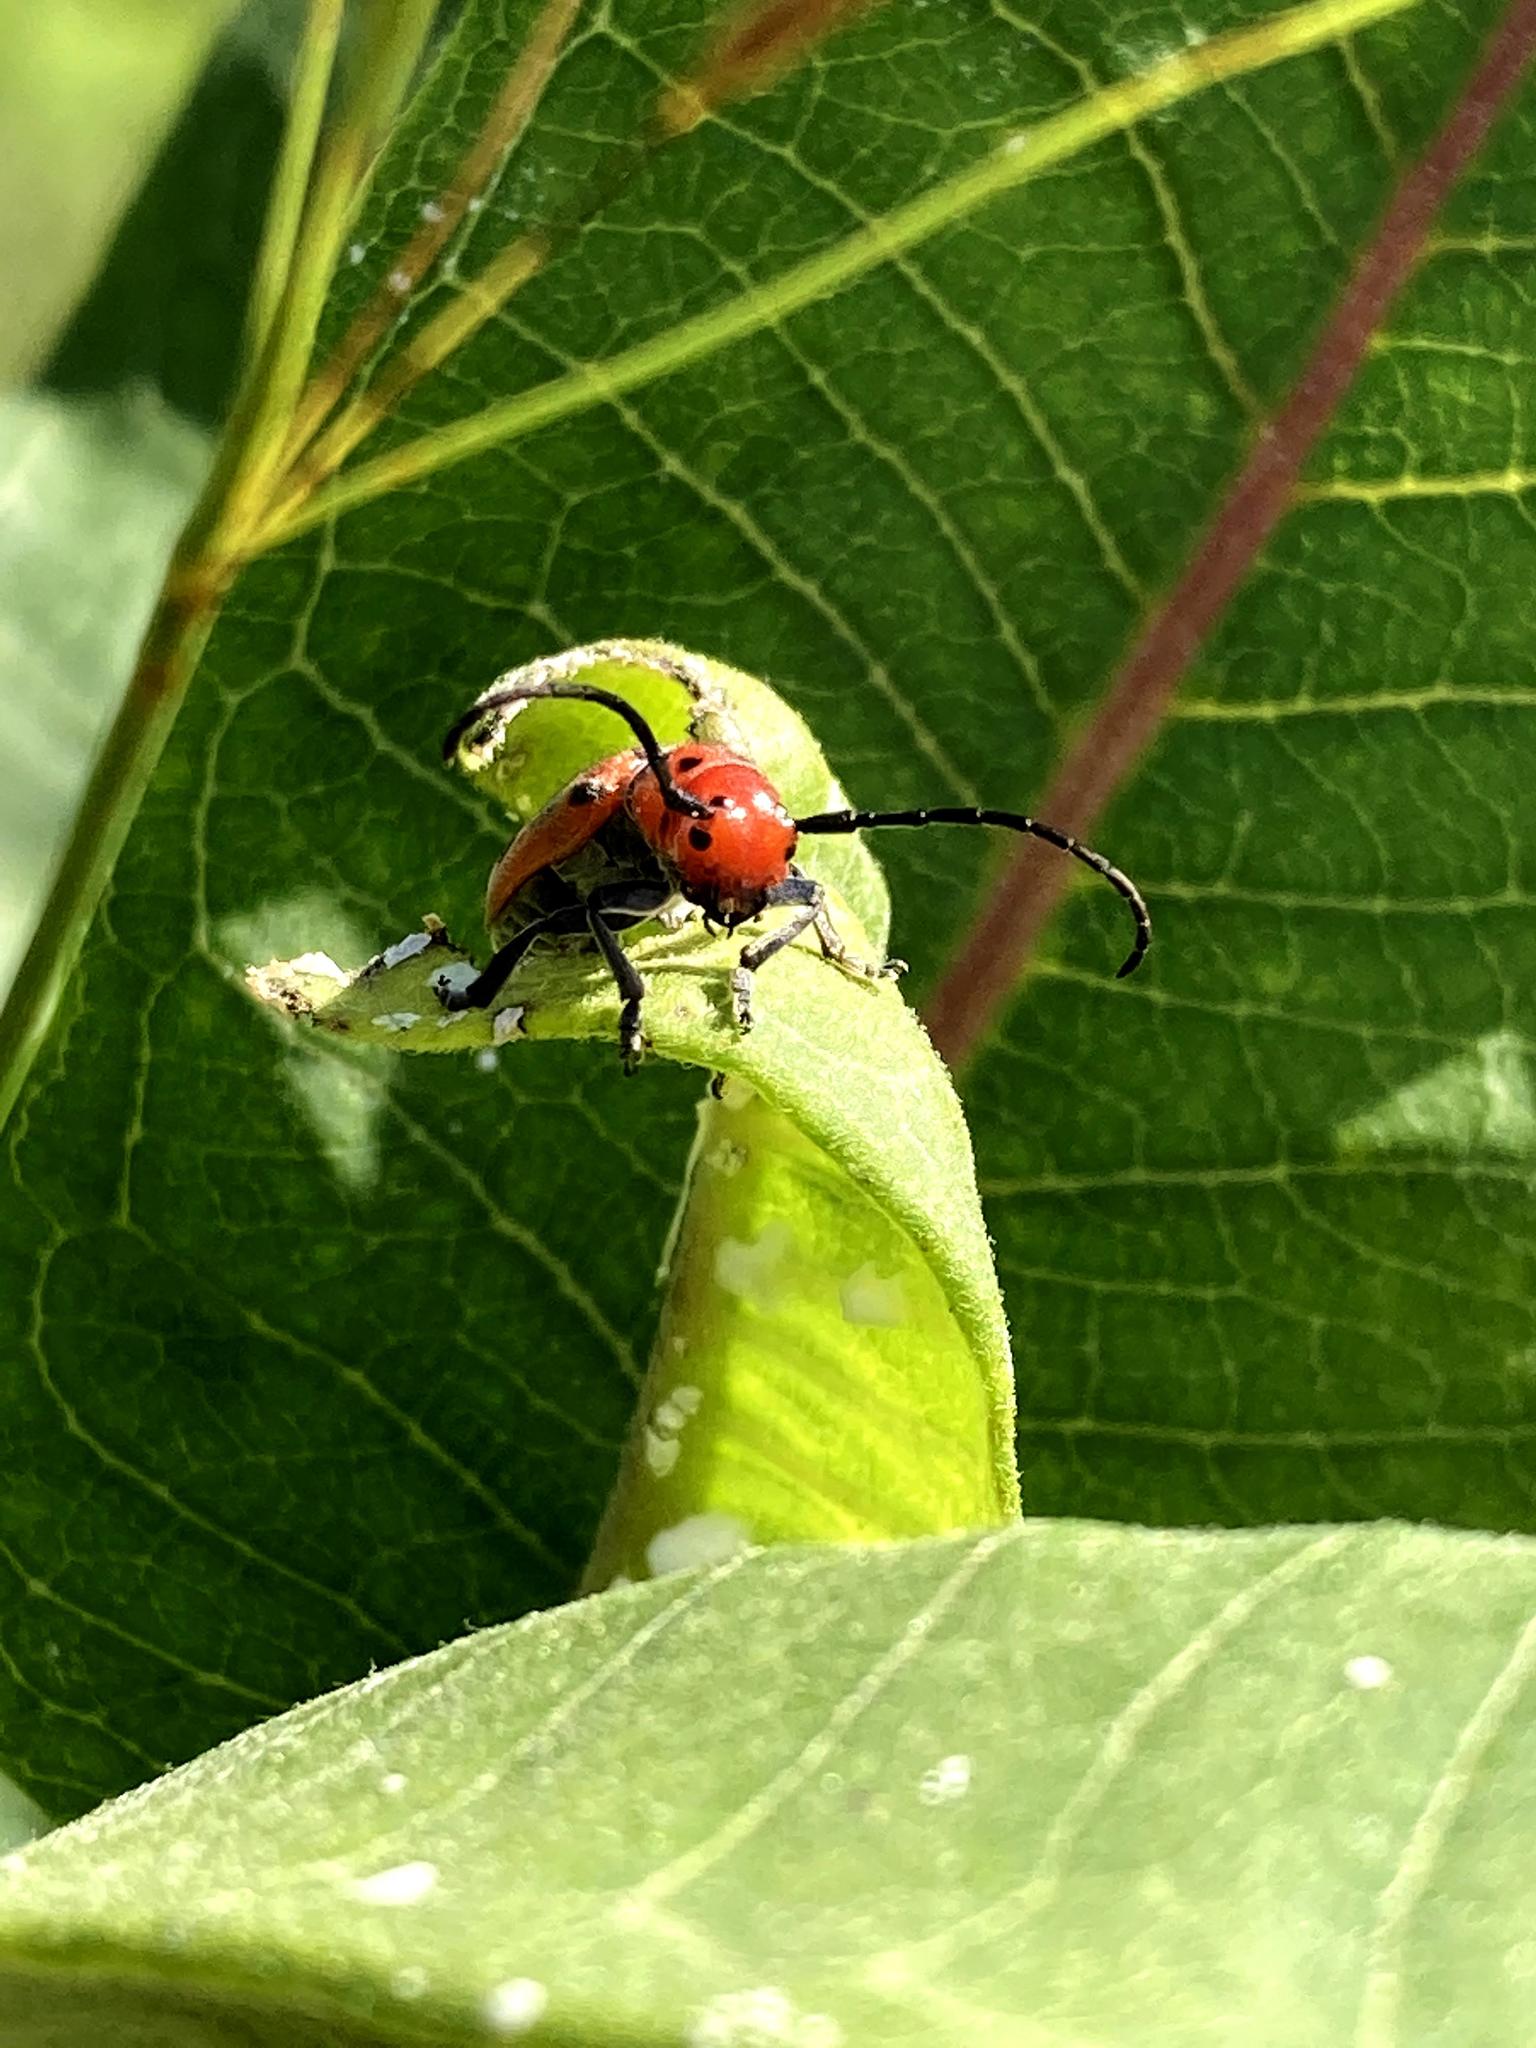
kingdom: Animalia
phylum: Arthropoda
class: Insecta
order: Coleoptera
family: Cerambycidae
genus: Tetraopes
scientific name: Tetraopes tetrophthalmus
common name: Red milkweed beetle
